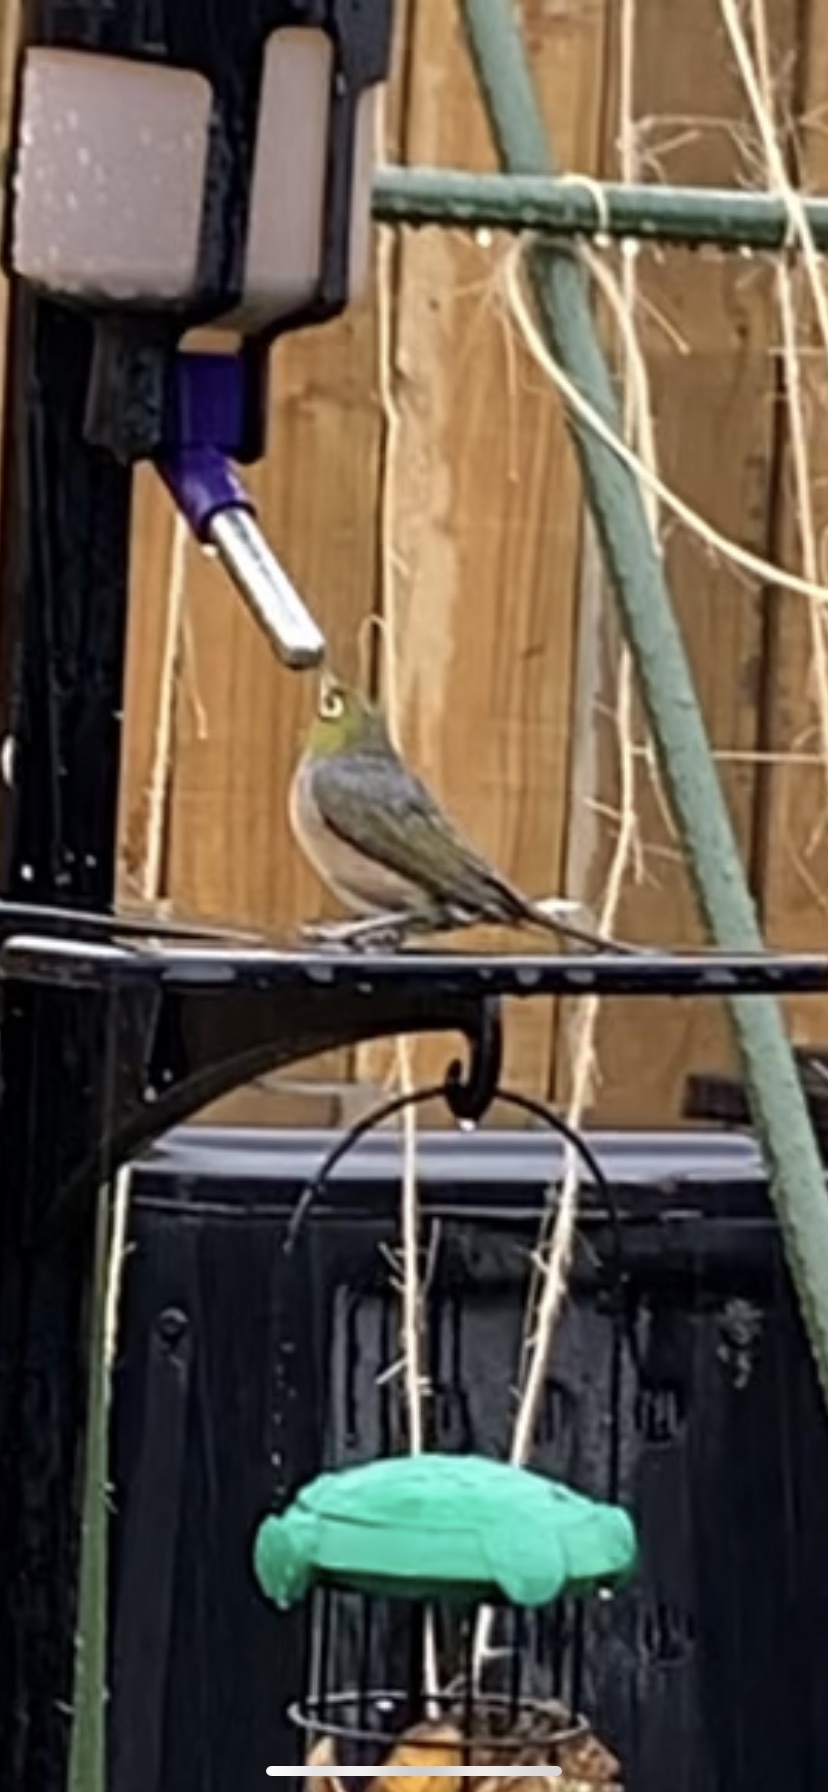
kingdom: Animalia
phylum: Chordata
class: Aves
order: Passeriformes
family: Zosteropidae
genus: Zosterops
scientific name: Zosterops lateralis
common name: Silvereye
